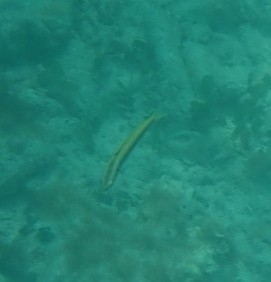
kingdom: Animalia
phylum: Chordata
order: Perciformes
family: Labridae
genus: Thalassoma
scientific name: Thalassoma bifasciatum
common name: Bluehead wrasse
